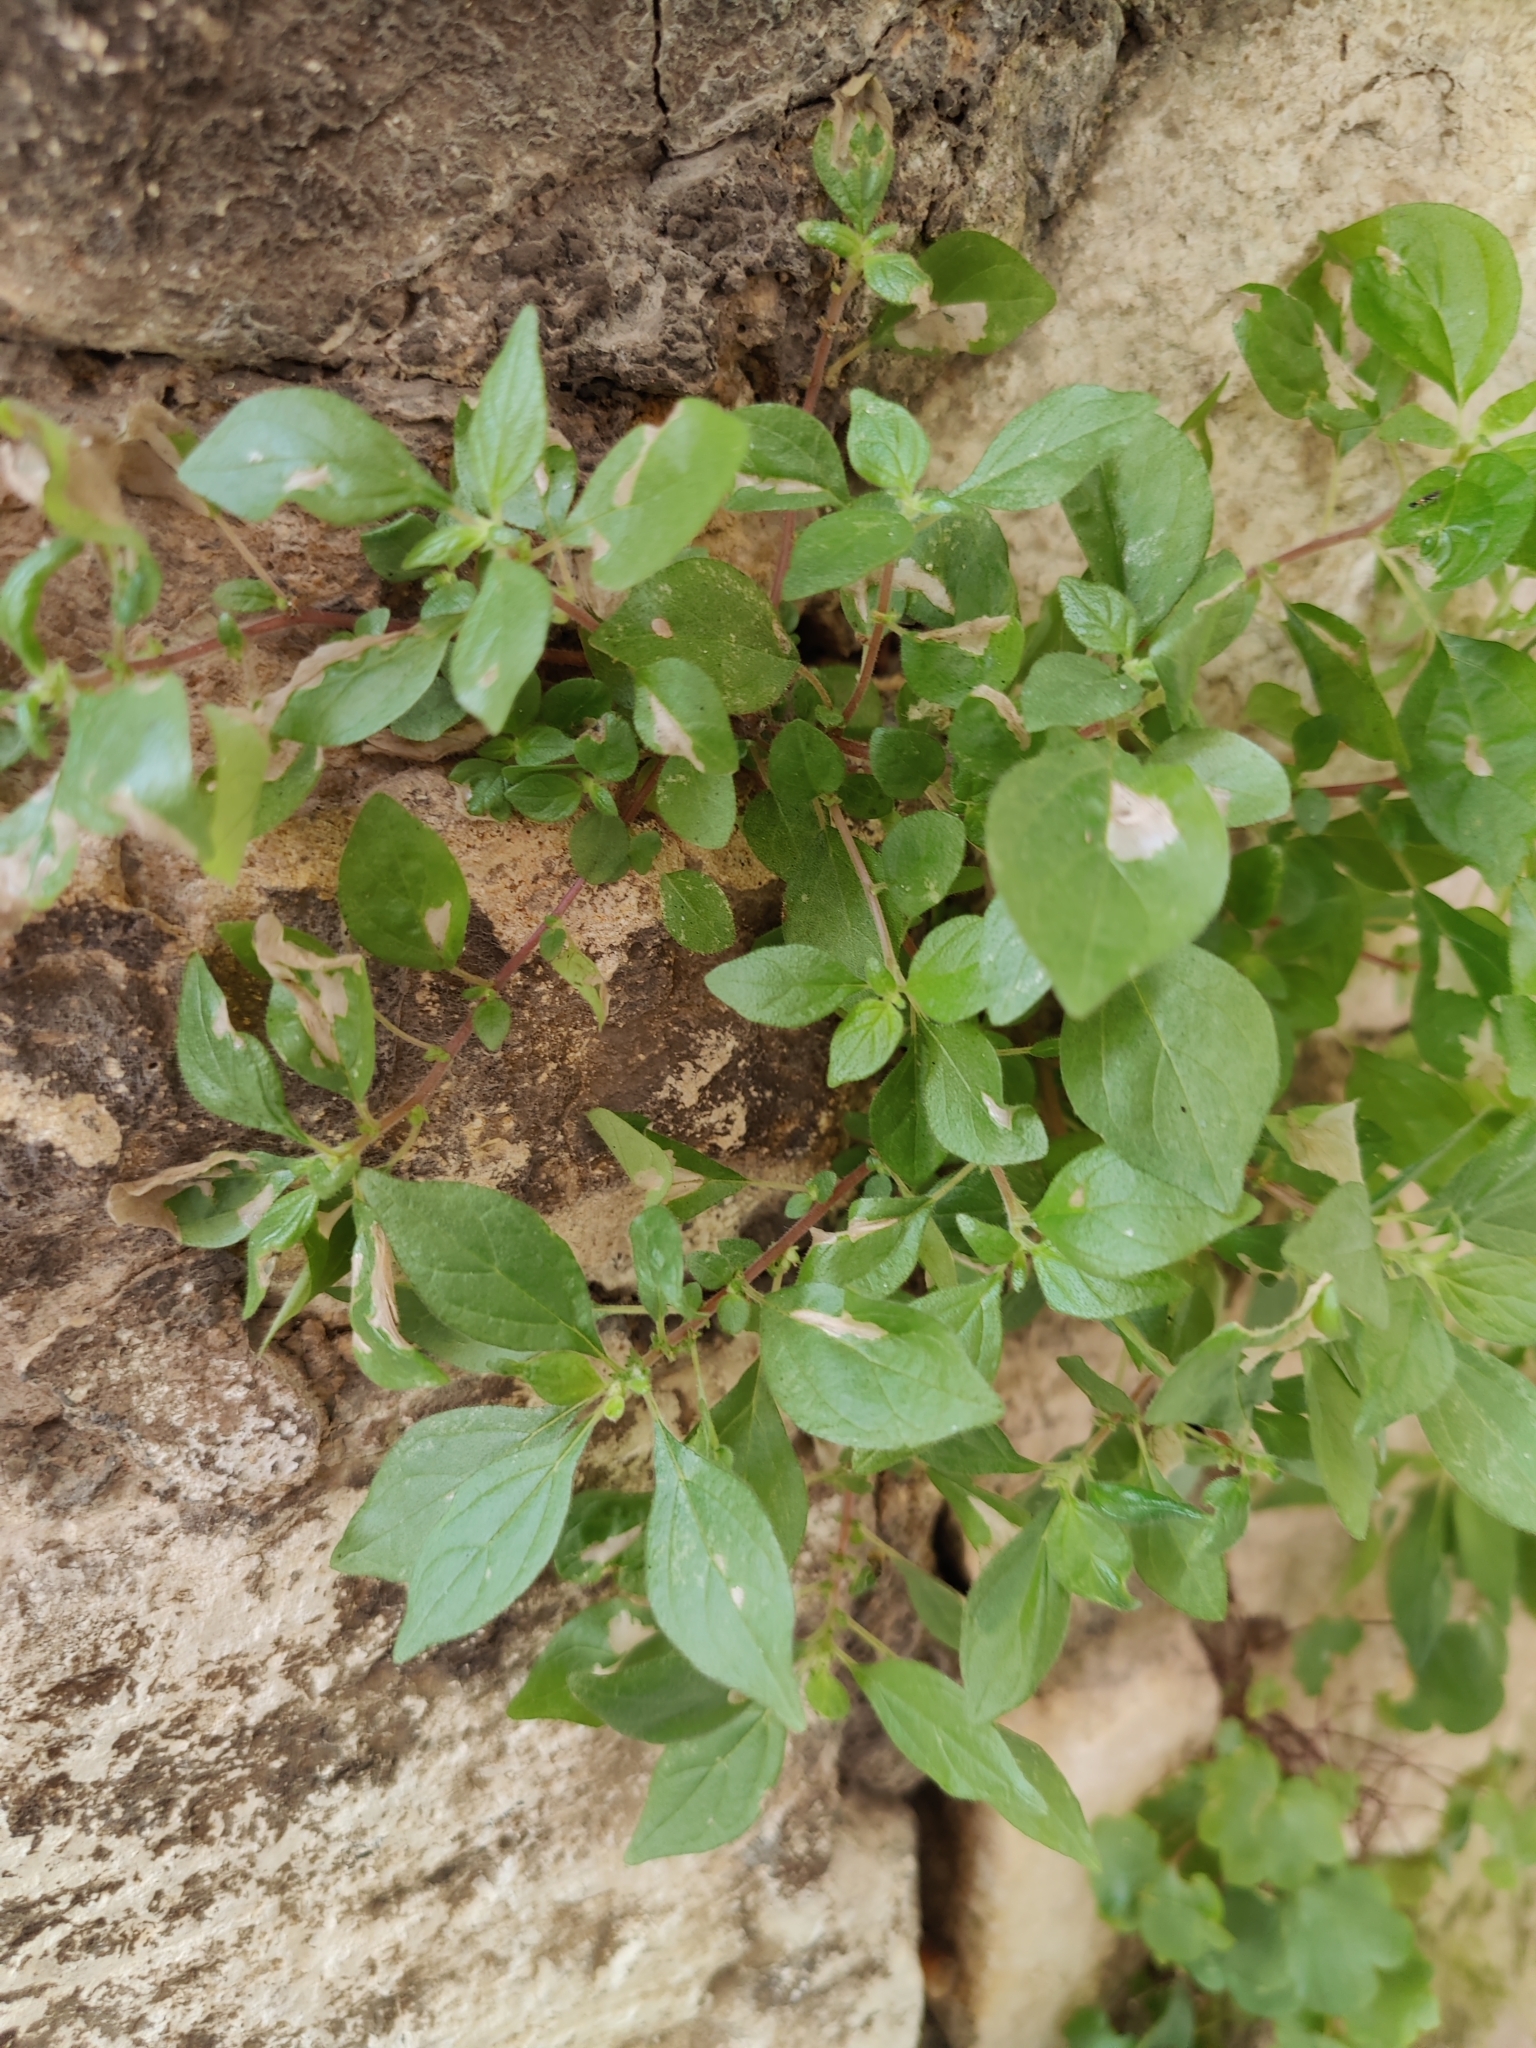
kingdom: Plantae
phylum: Tracheophyta
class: Magnoliopsida
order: Rosales
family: Urticaceae
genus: Parietaria
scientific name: Parietaria judaica
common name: Pellitory-of-the-wall
